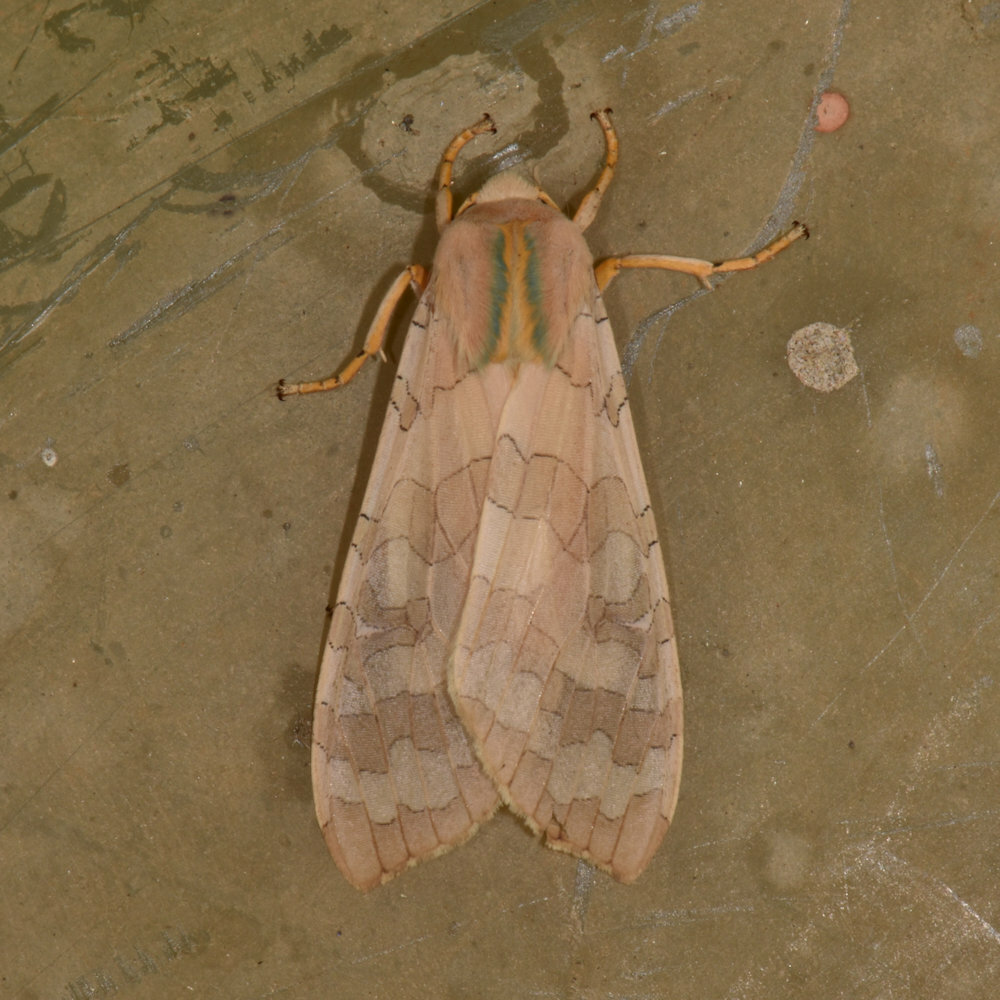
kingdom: Animalia
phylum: Arthropoda
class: Insecta
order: Lepidoptera
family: Erebidae
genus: Halysidota
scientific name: Halysidota tessellaris
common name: Banded tussock moth
